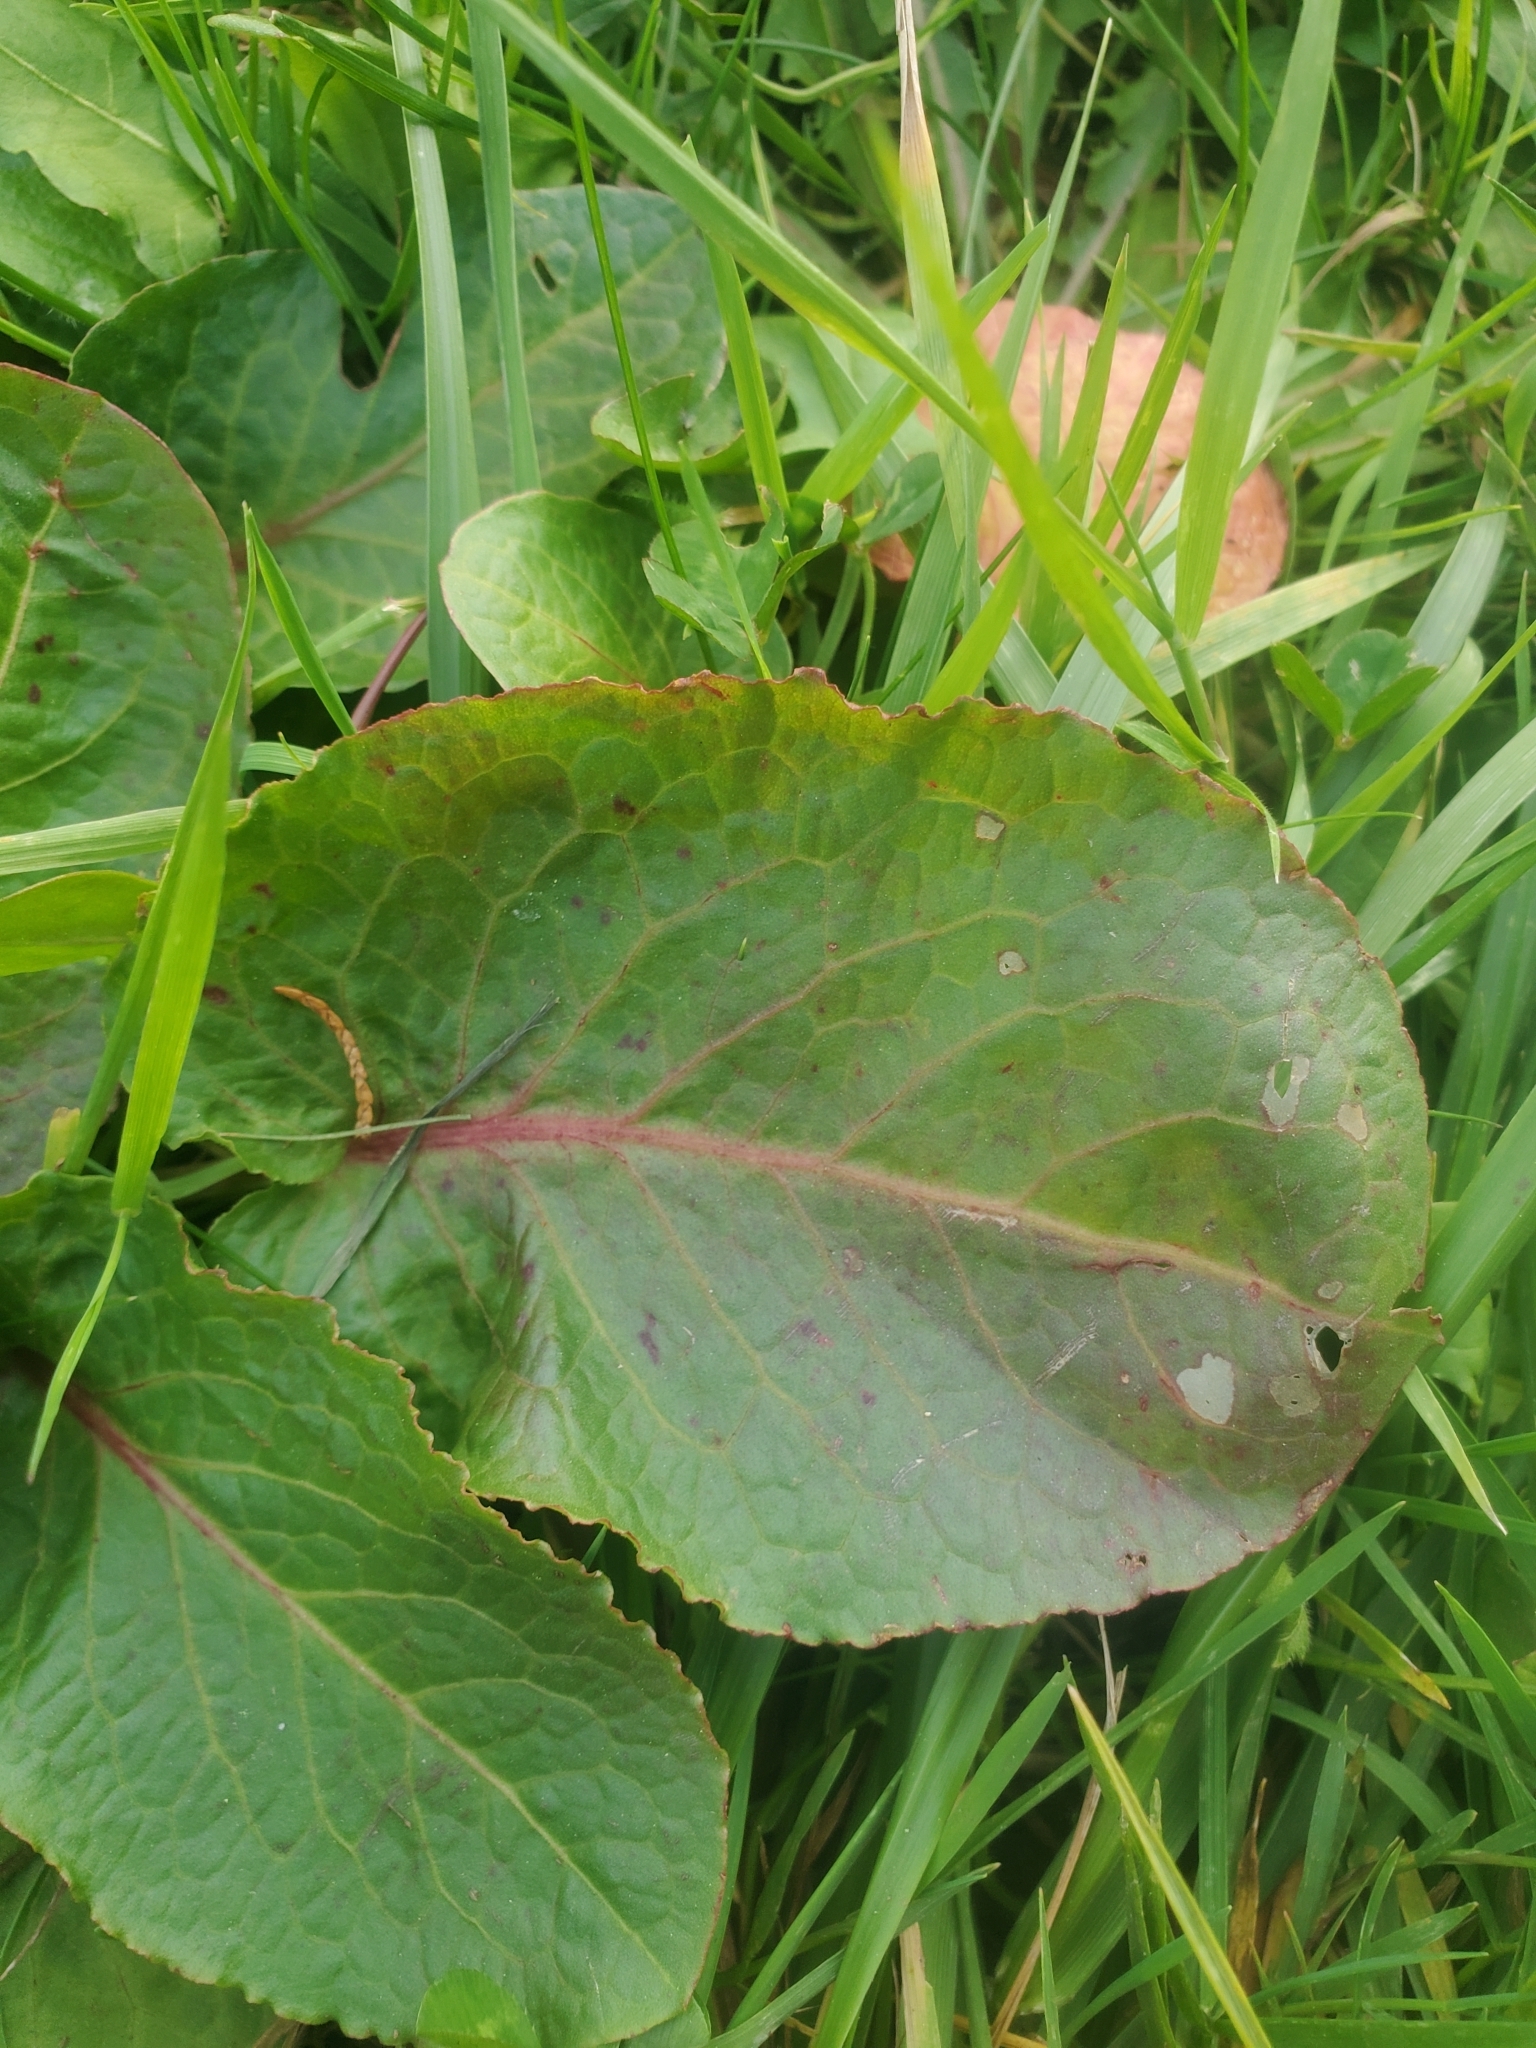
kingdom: Plantae
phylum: Tracheophyta
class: Magnoliopsida
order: Caryophyllales
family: Polygonaceae
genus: Rumex
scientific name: Rumex obtusifolius
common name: Bitter dock
